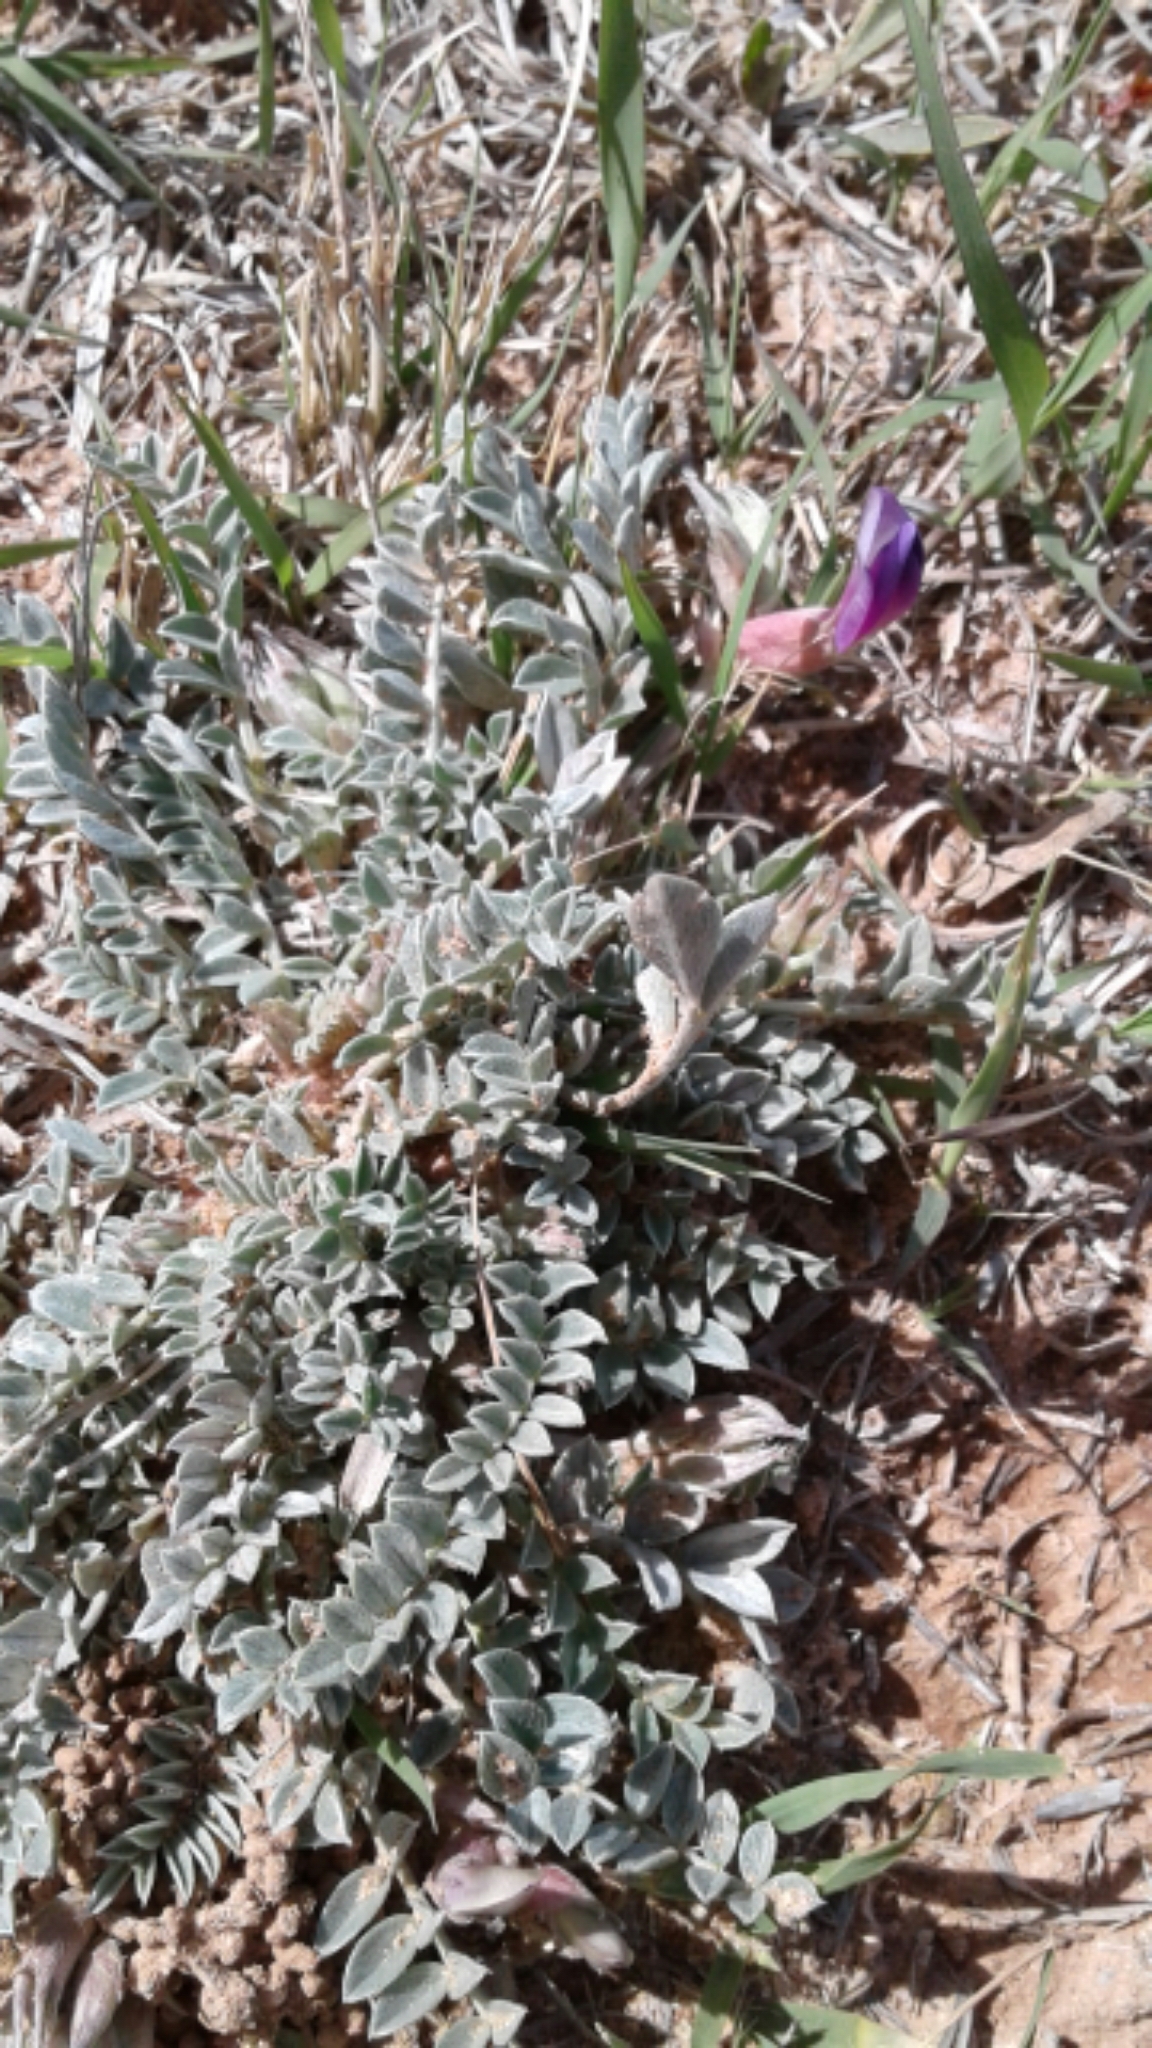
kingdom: Plantae
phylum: Tracheophyta
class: Magnoliopsida
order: Fabales
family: Fabaceae
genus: Astragalus
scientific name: Astragalus missouriensis
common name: Missouri milk-vetch
